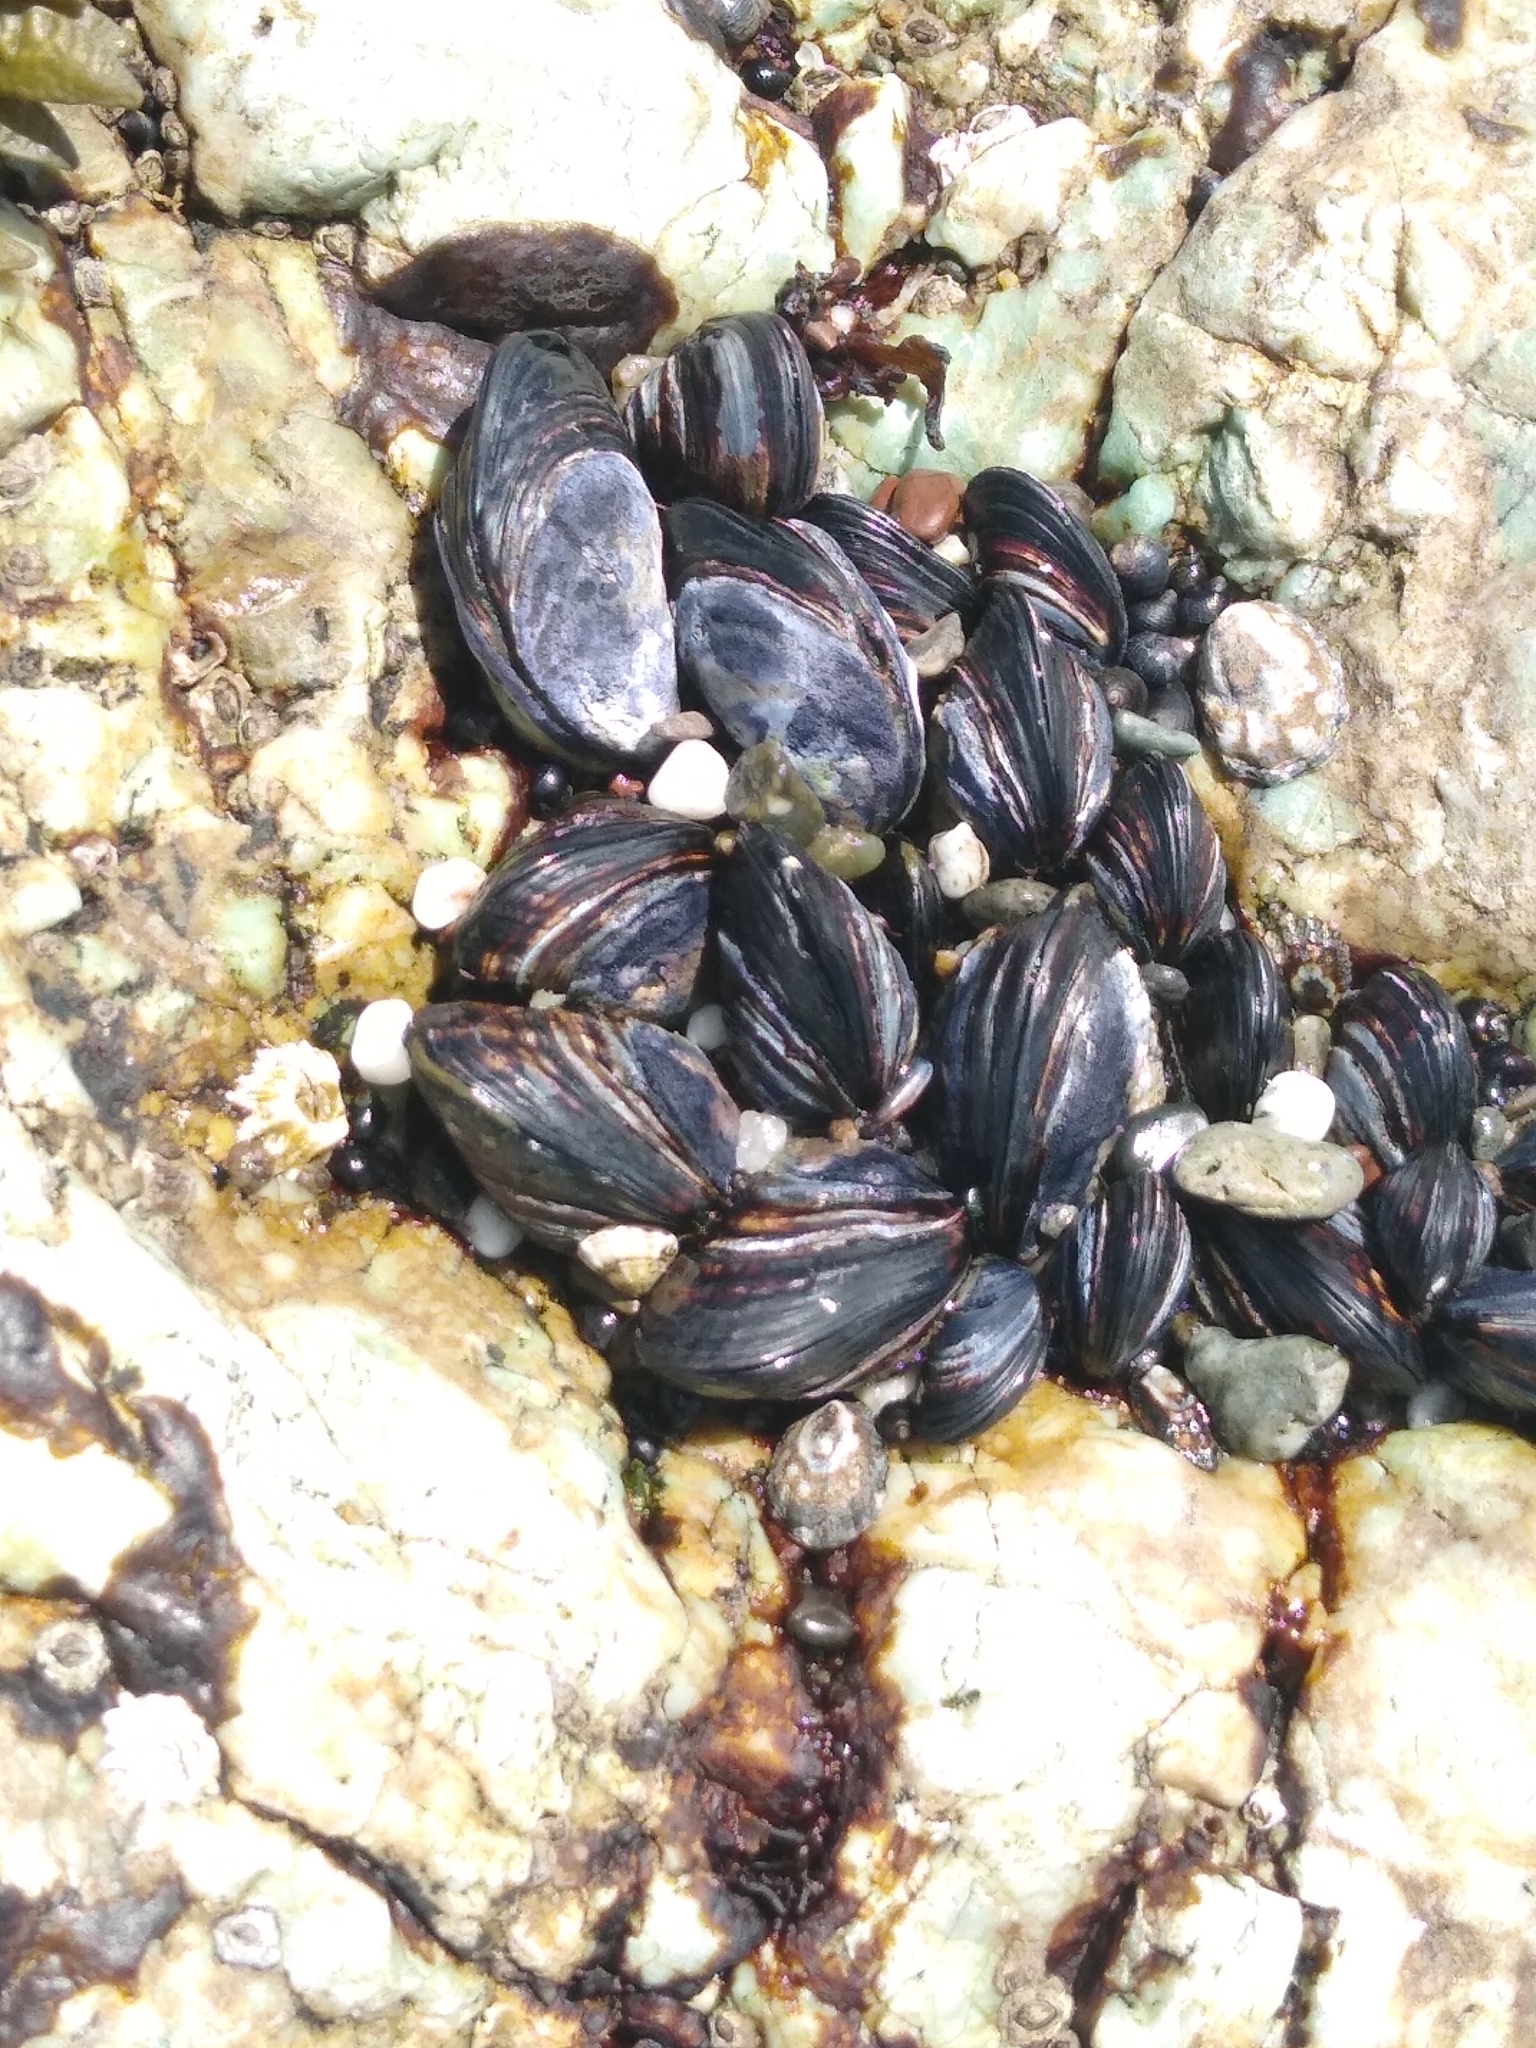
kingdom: Animalia
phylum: Mollusca
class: Bivalvia
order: Mytilida
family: Mytilidae
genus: Mytilus
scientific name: Mytilus californianus
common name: California mussel
